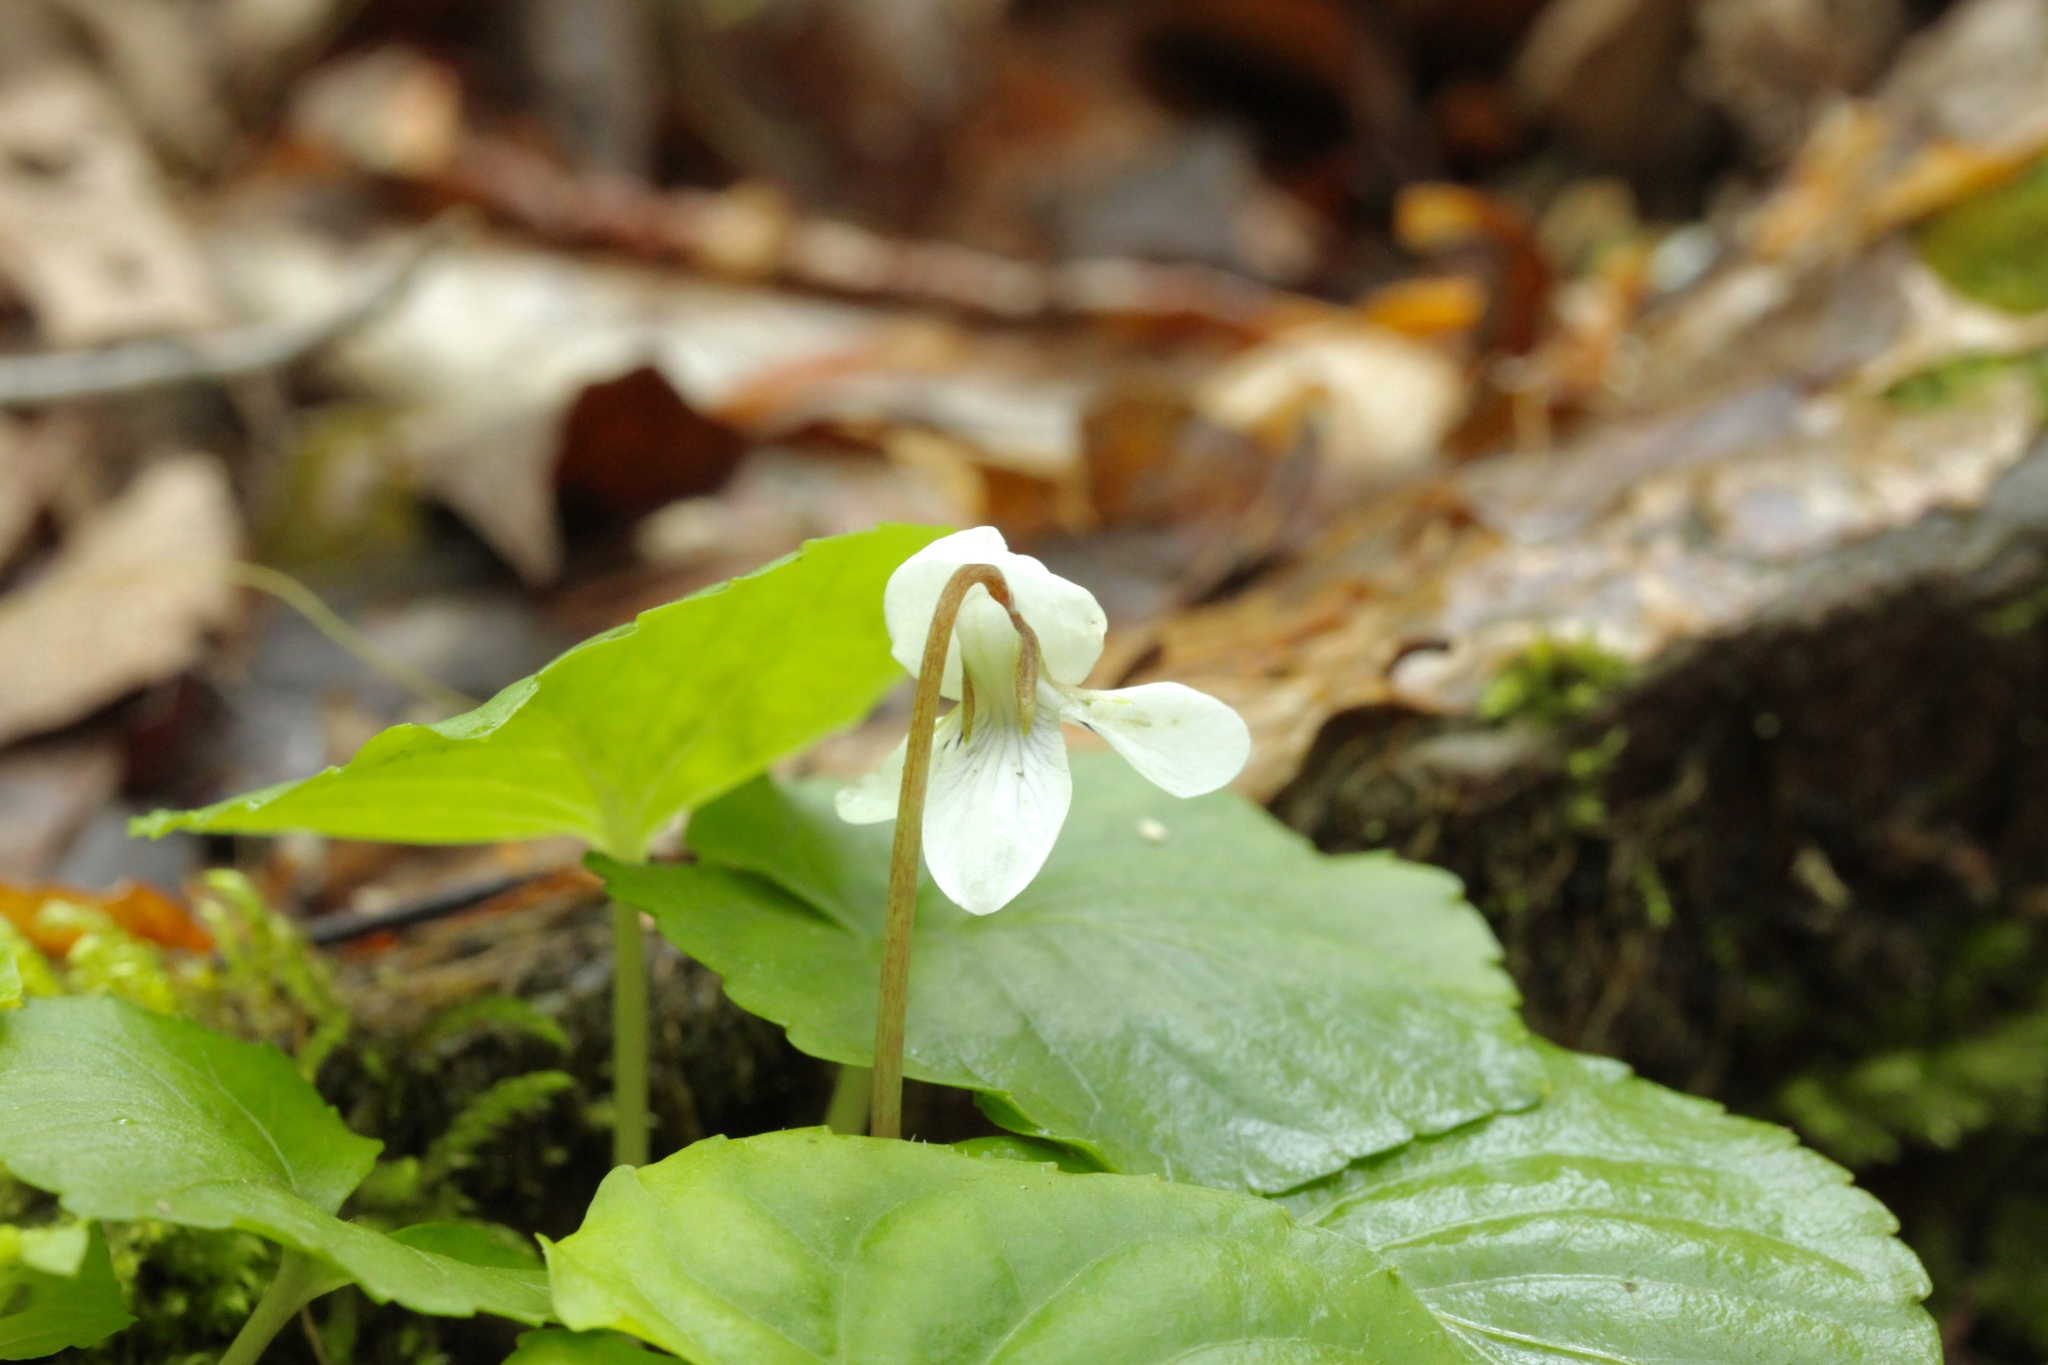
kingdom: Plantae
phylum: Tracheophyta
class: Magnoliopsida
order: Malpighiales
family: Violaceae
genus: Viola
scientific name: Viola minuscula
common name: Northern white violet
